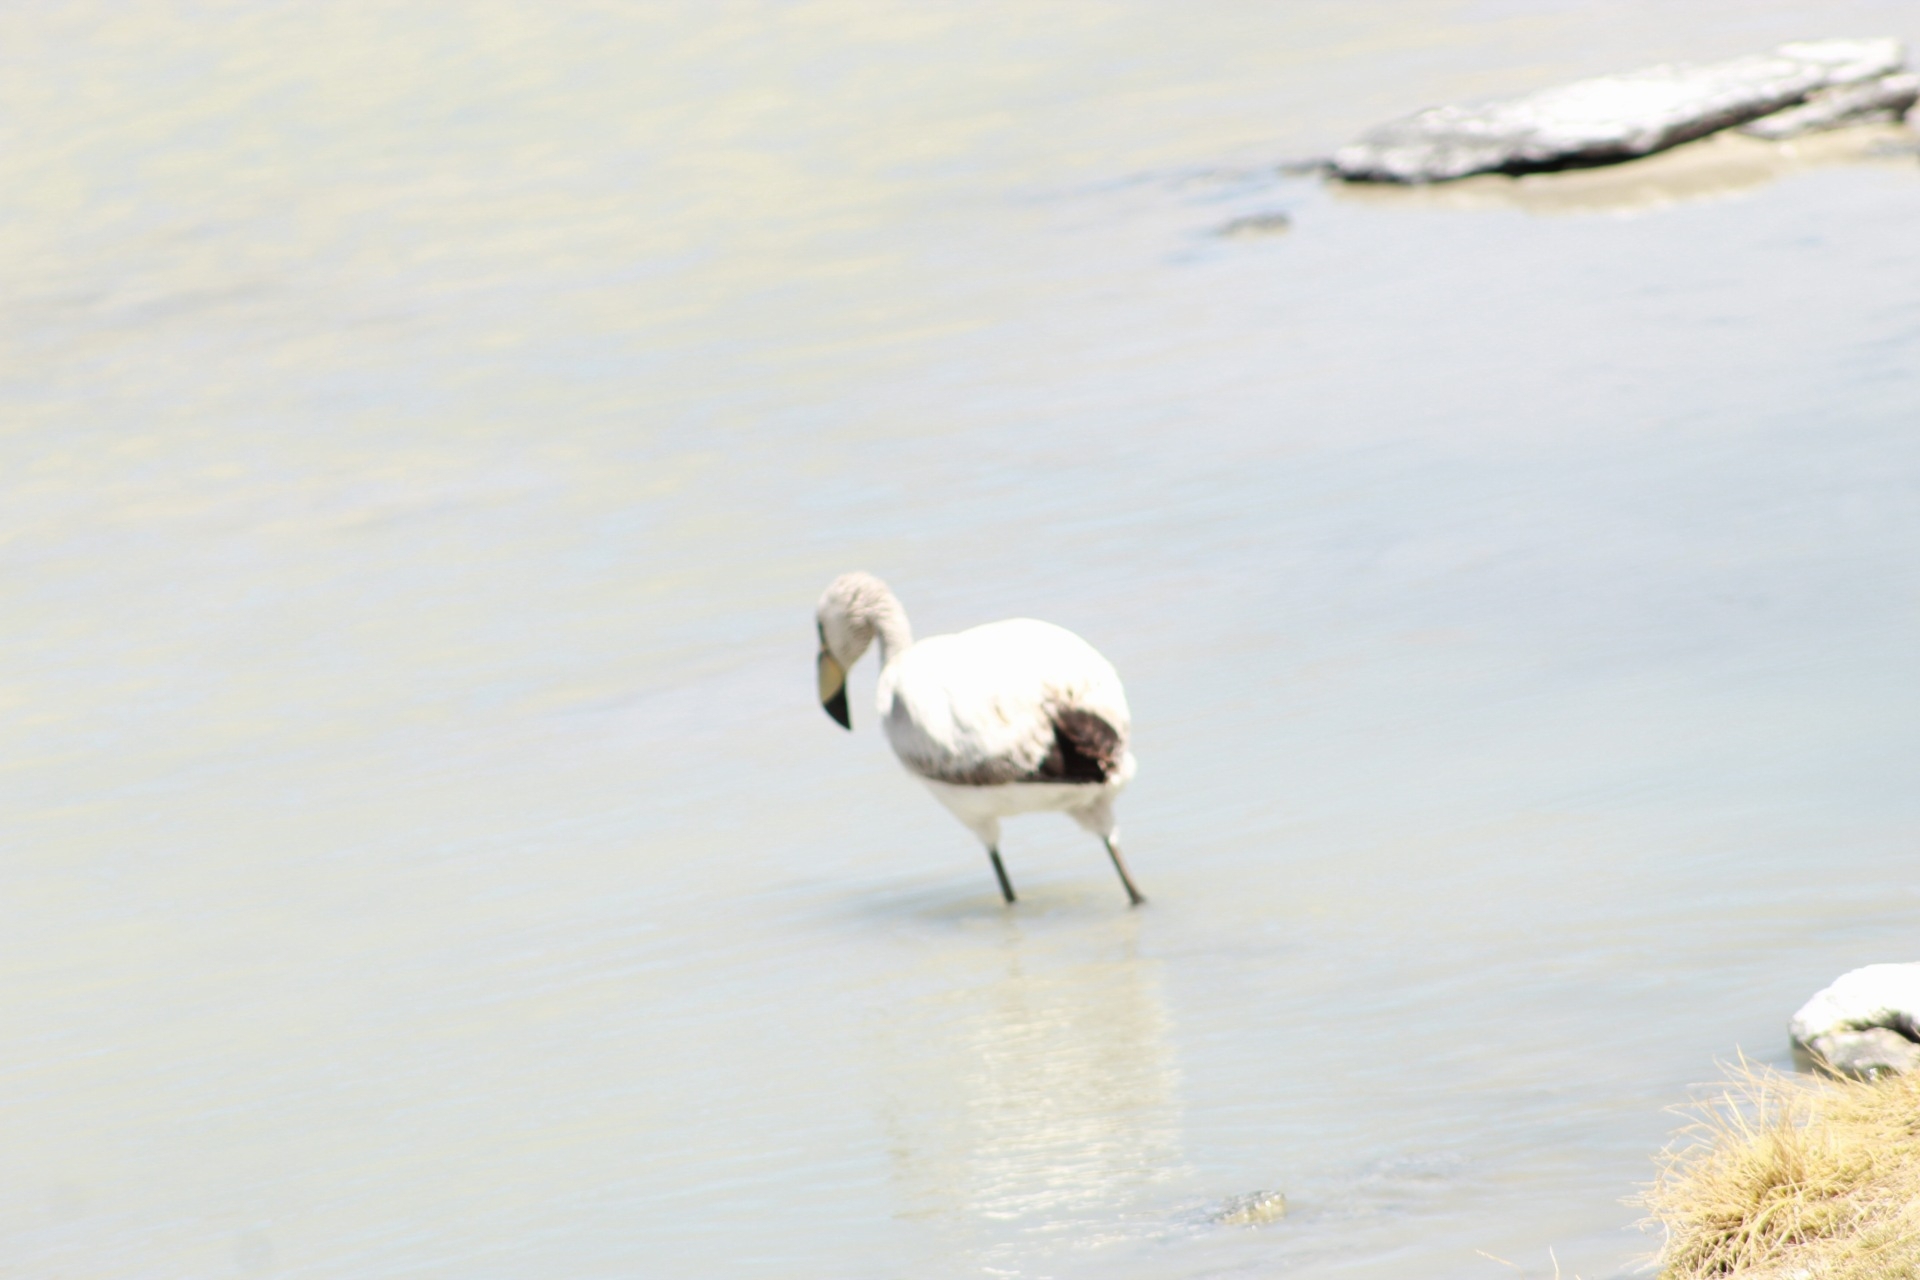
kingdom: Animalia
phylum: Chordata
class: Aves
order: Phoenicopteriformes
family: Phoenicopteridae
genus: Phoenicoparrus
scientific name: Phoenicoparrus jamesi
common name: James's flamingo
